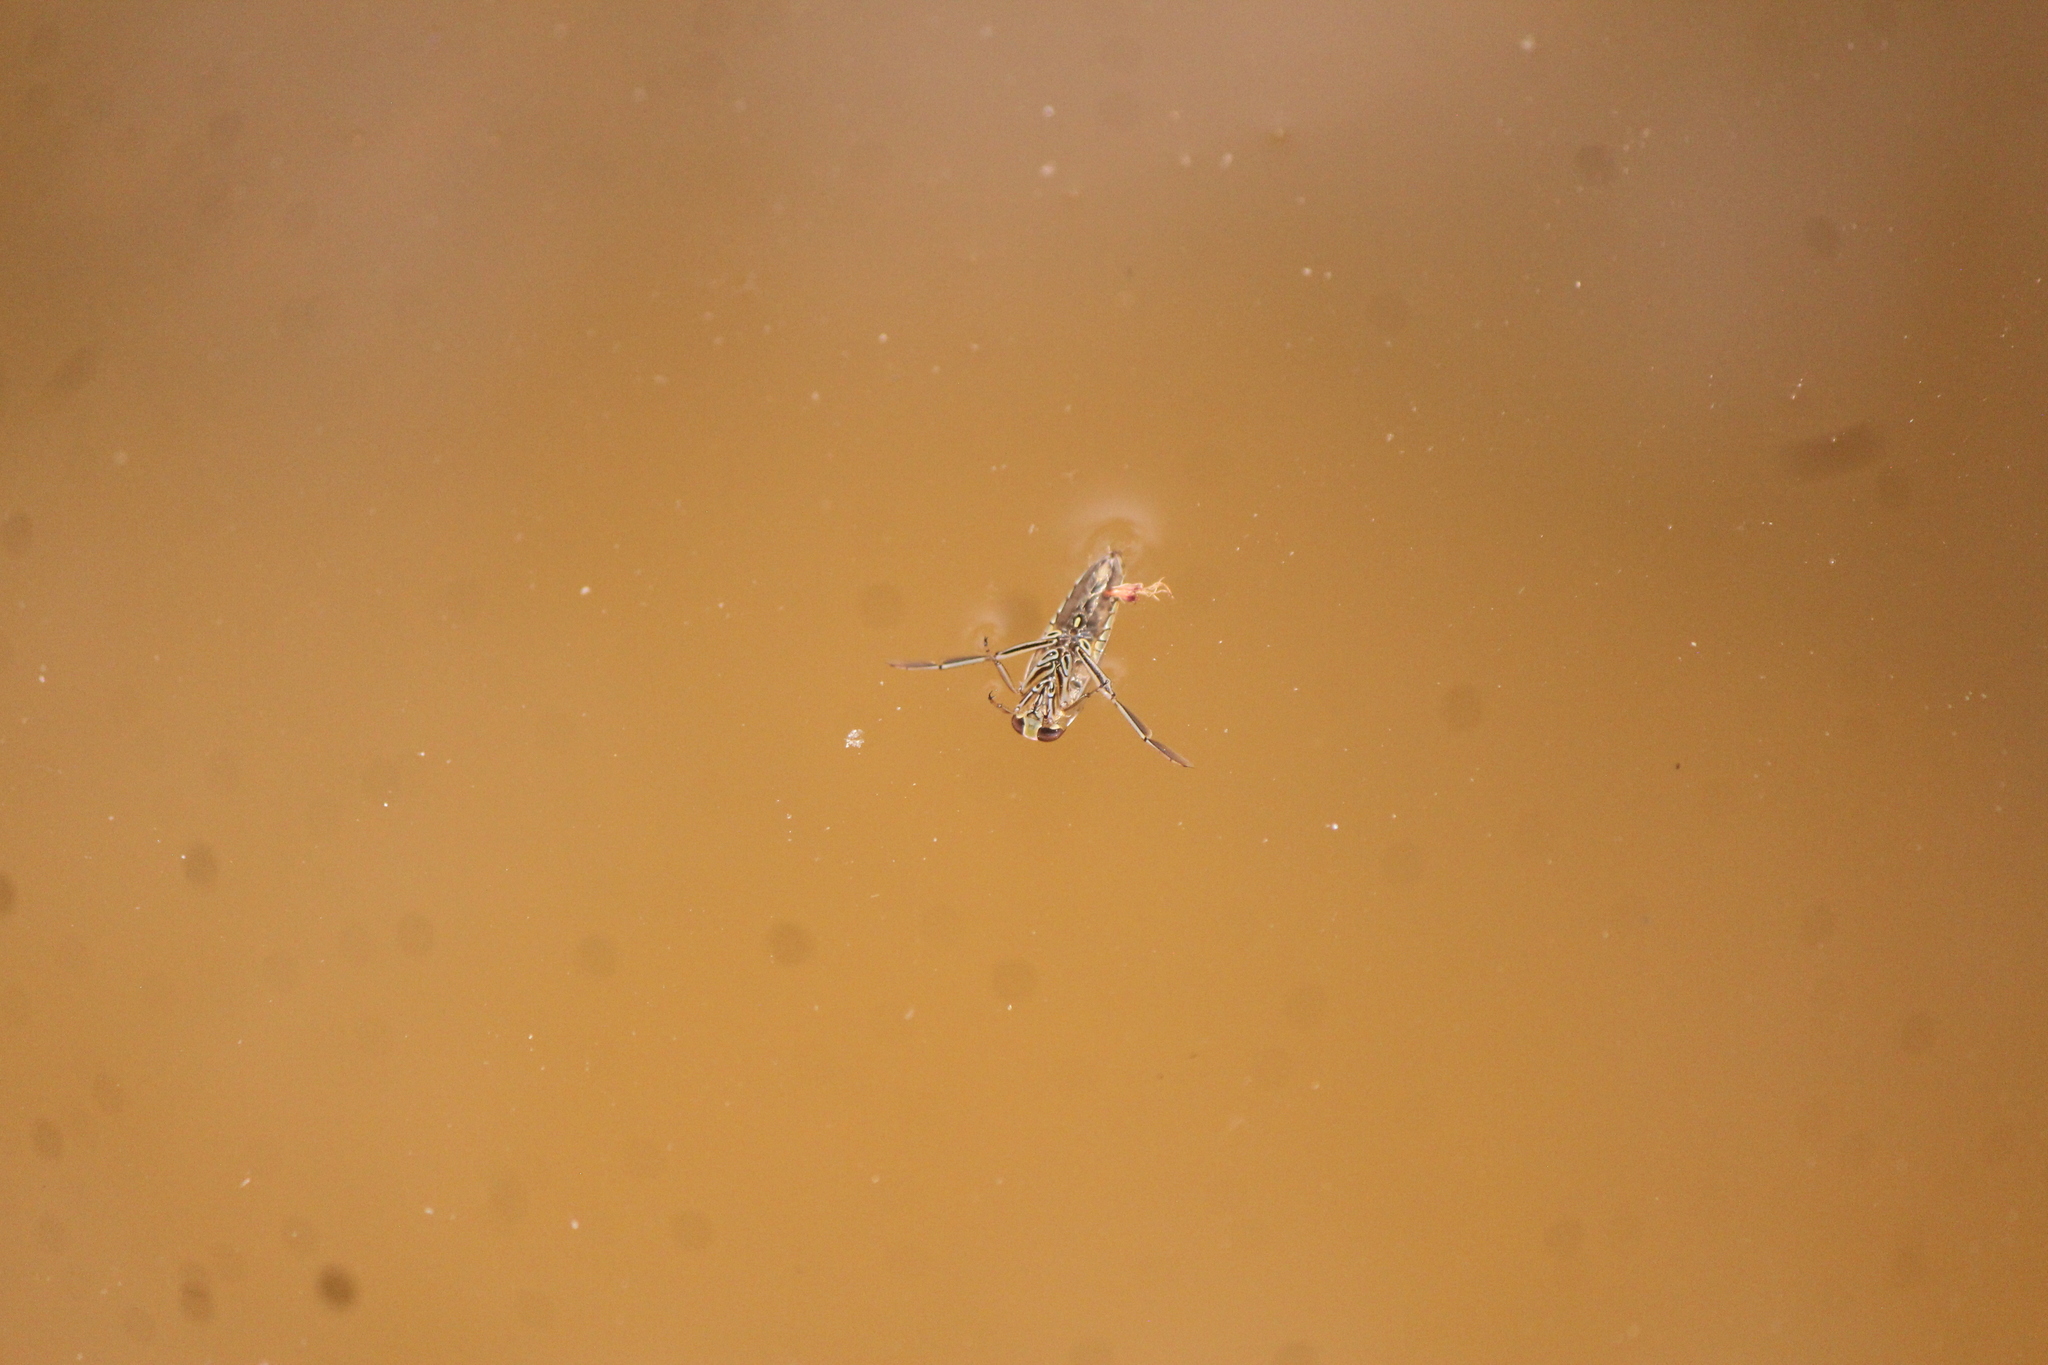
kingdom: Animalia
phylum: Arthropoda
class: Insecta
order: Hemiptera
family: Notonectidae
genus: Notonecta
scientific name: Notonecta
